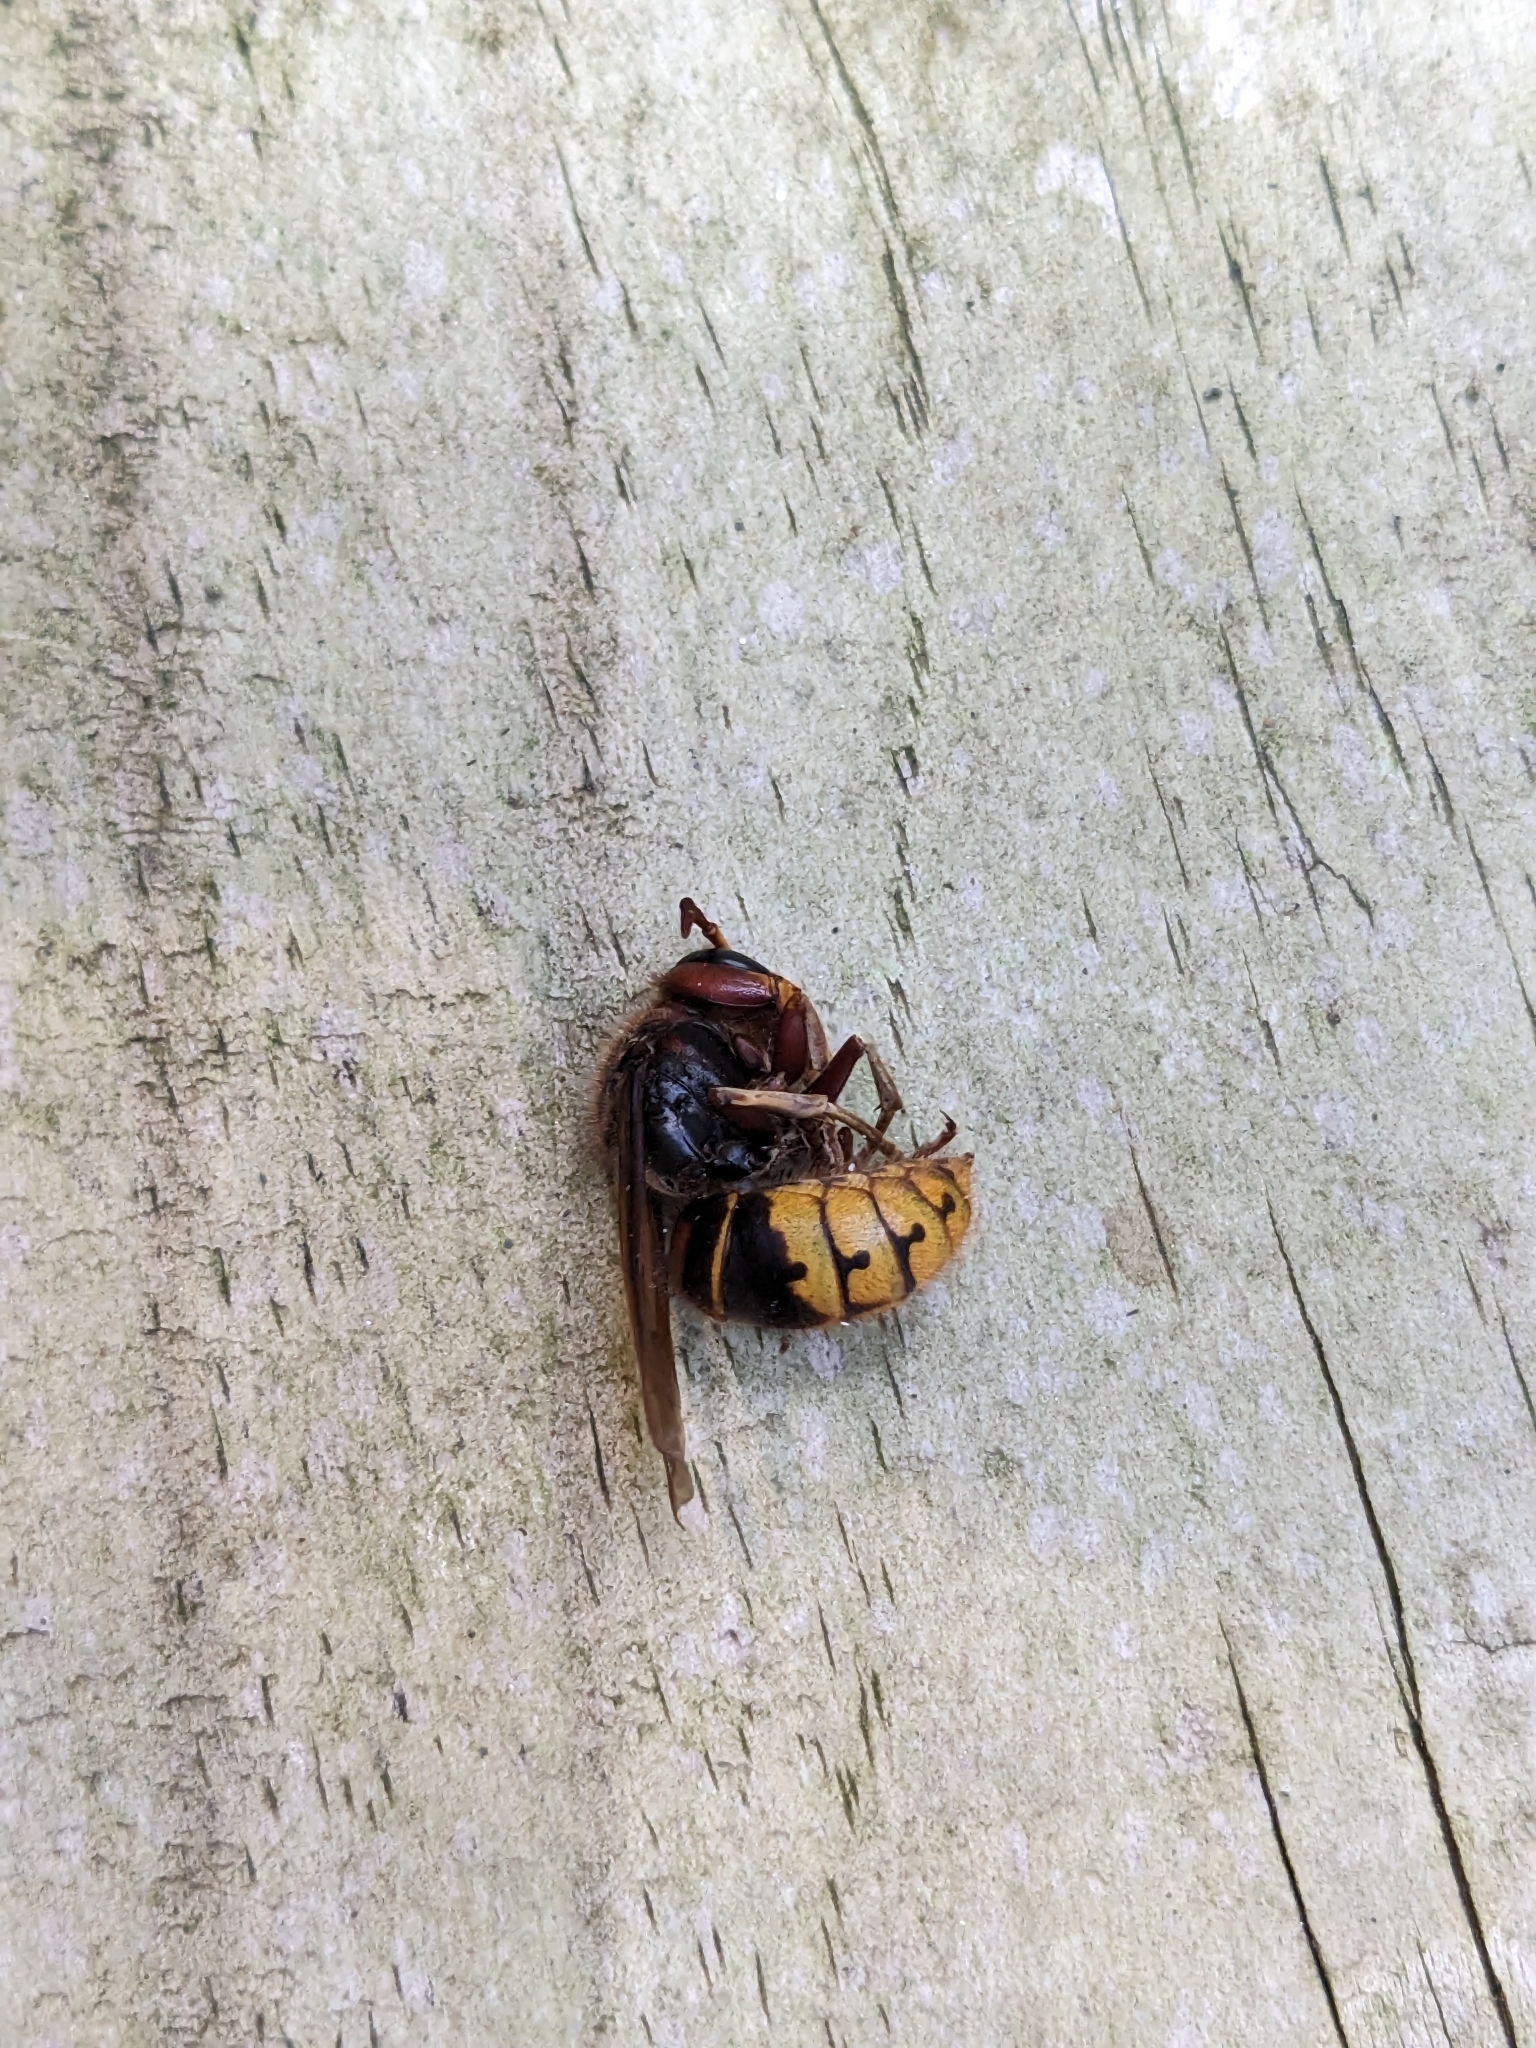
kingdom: Animalia
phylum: Arthropoda
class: Insecta
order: Hymenoptera
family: Vespidae
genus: Vespa
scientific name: Vespa crabro
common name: Hornet
